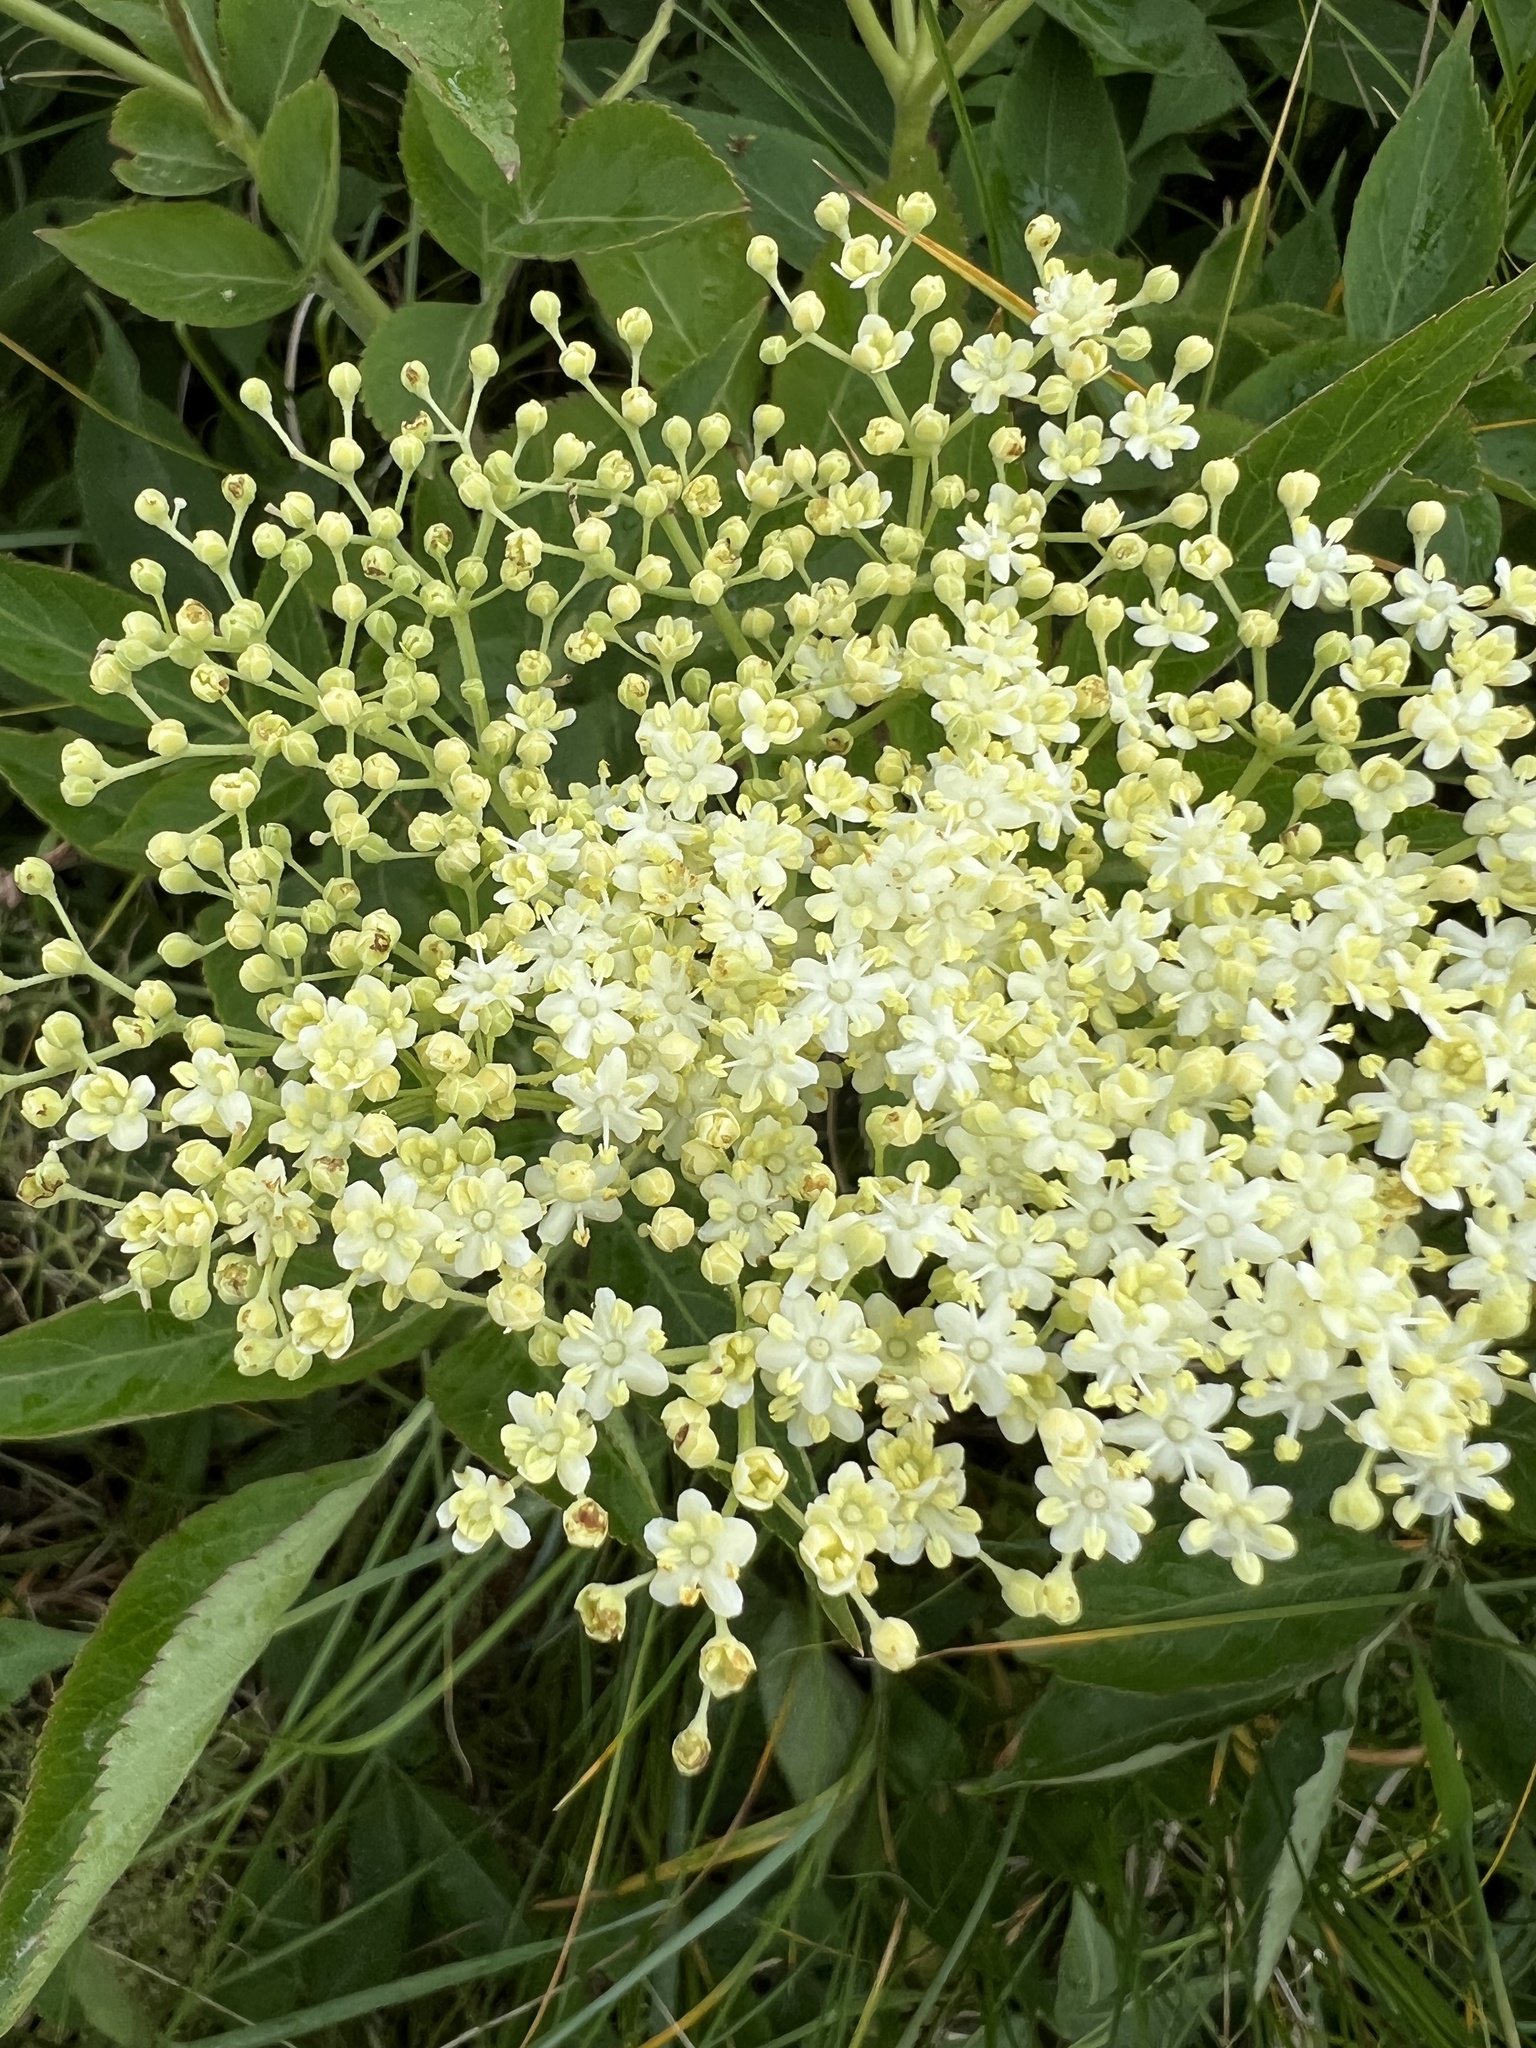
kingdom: Plantae
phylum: Tracheophyta
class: Magnoliopsida
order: Dipsacales
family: Viburnaceae
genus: Sambucus
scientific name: Sambucus nigra
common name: Elder
